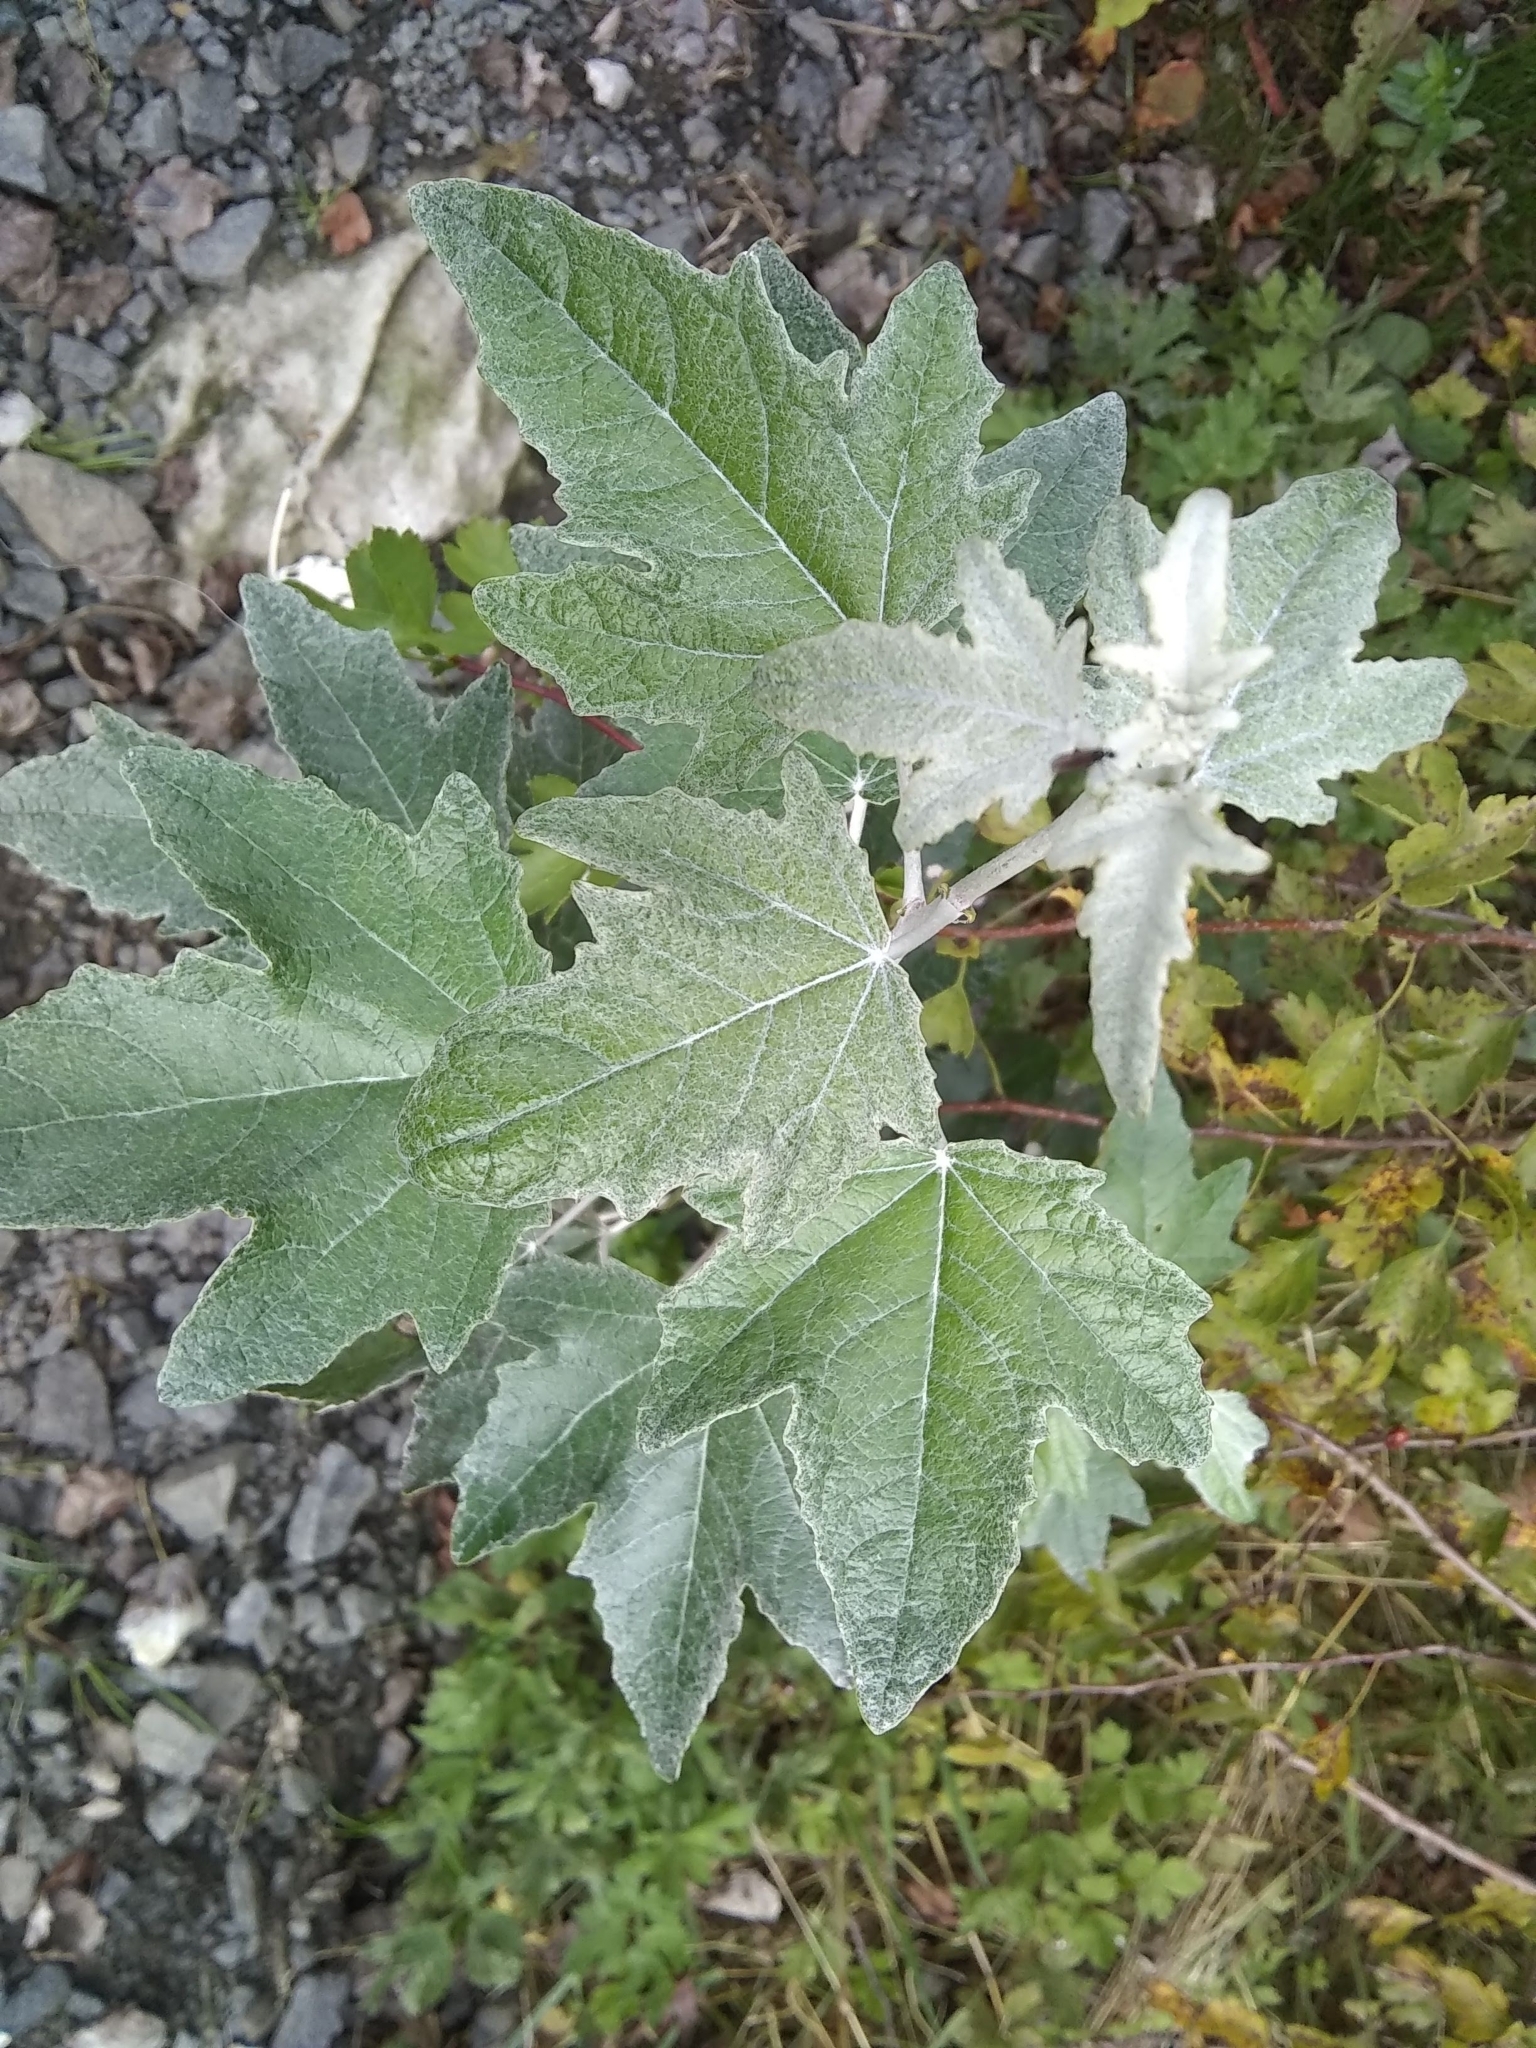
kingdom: Plantae
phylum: Tracheophyta
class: Magnoliopsida
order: Malpighiales
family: Salicaceae
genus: Populus
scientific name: Populus alba
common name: White poplar
